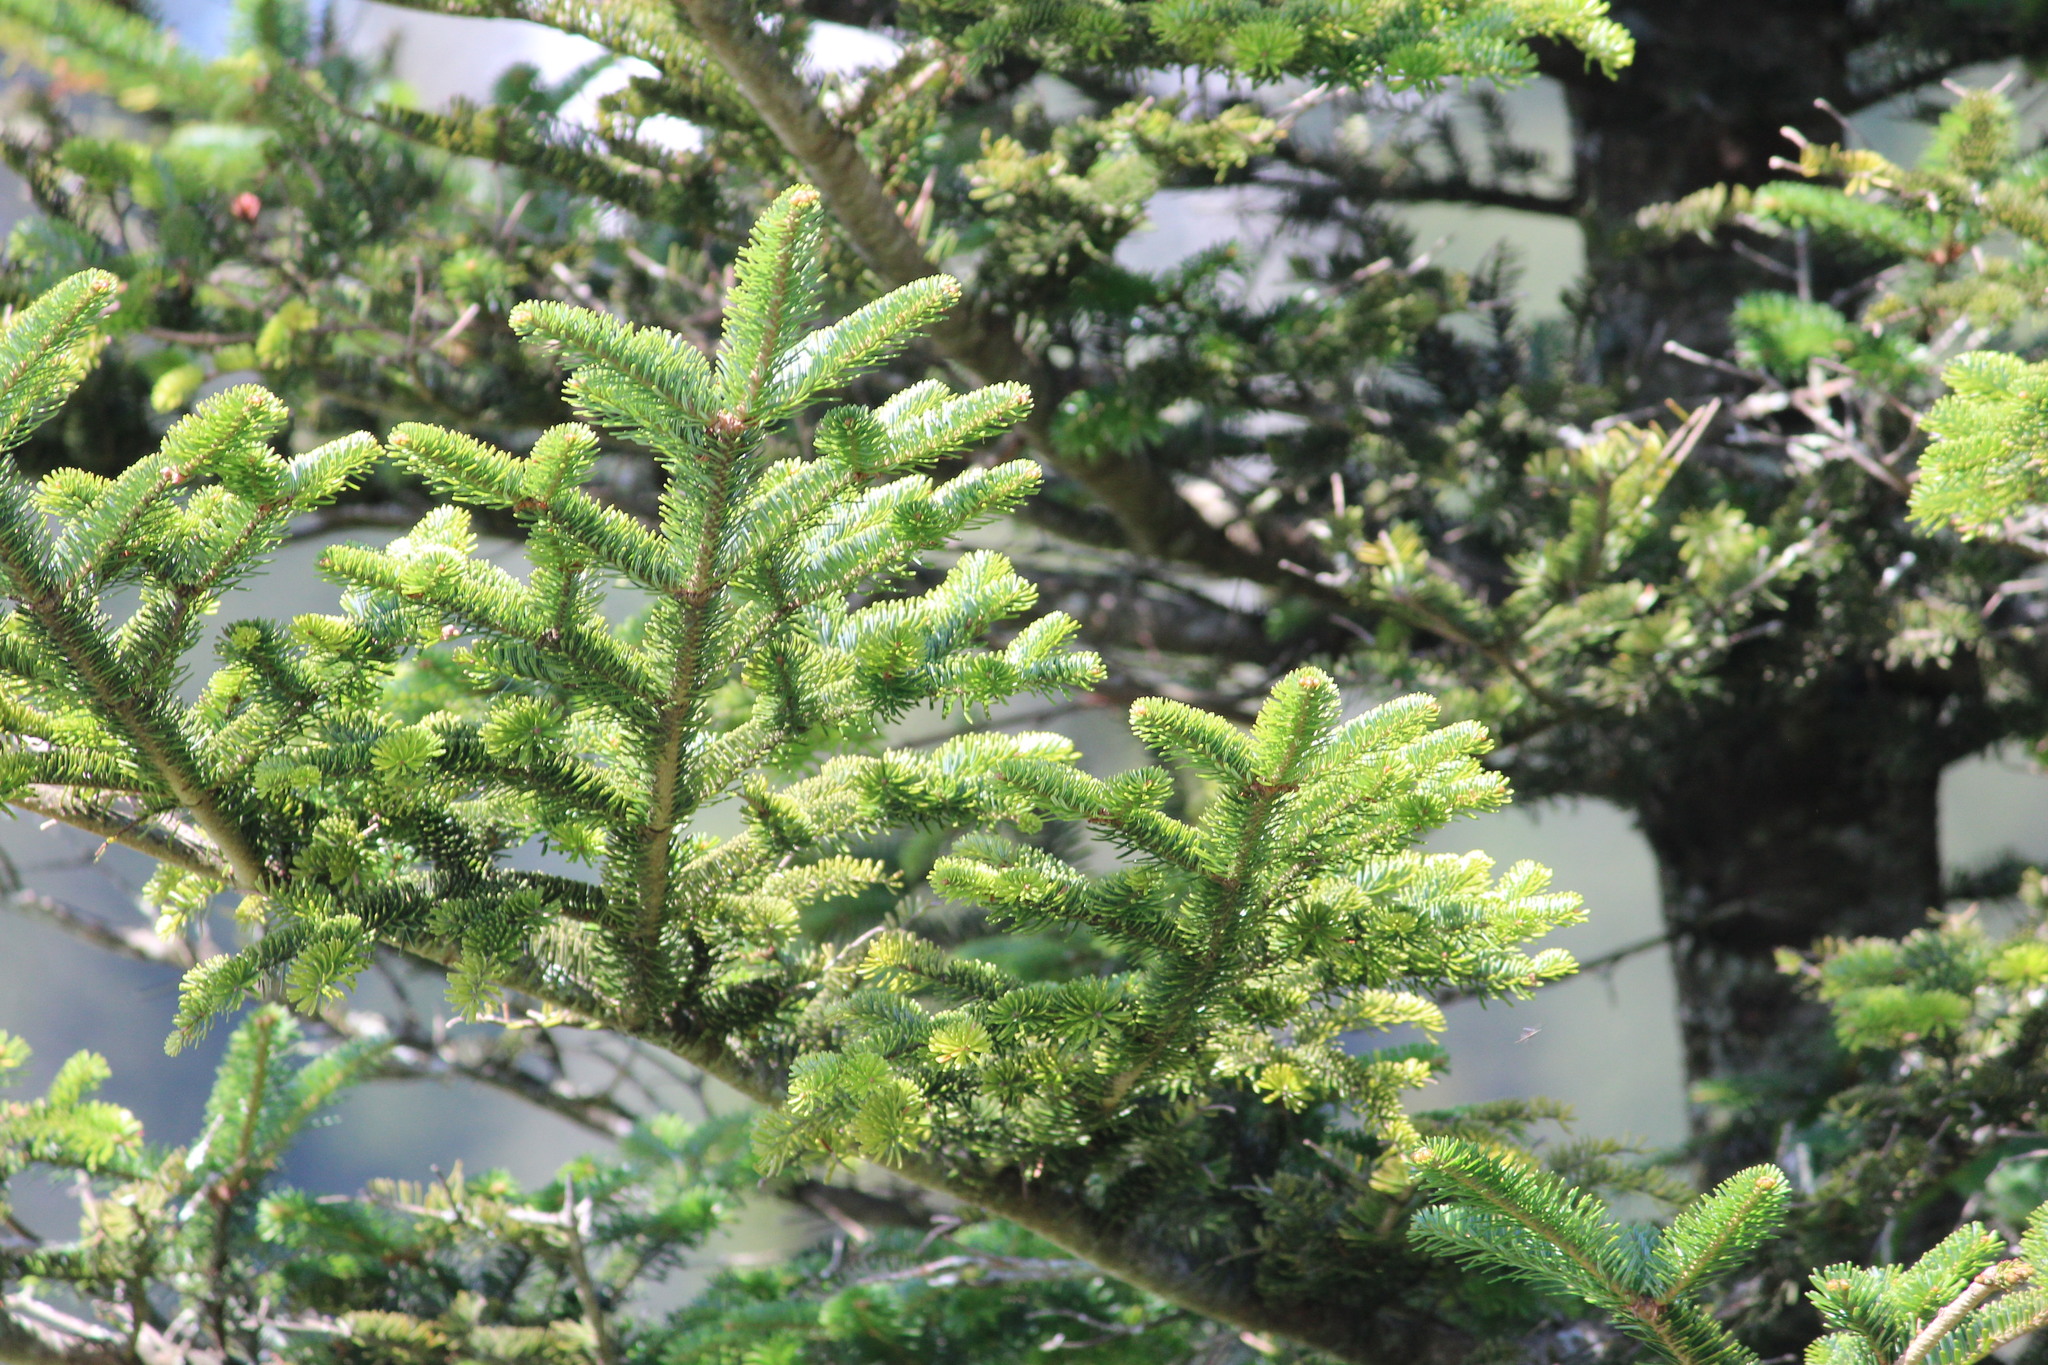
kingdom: Plantae
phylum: Tracheophyta
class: Pinopsida
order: Pinales
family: Pinaceae
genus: Abies
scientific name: Abies fraseri
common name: Fraser fir
